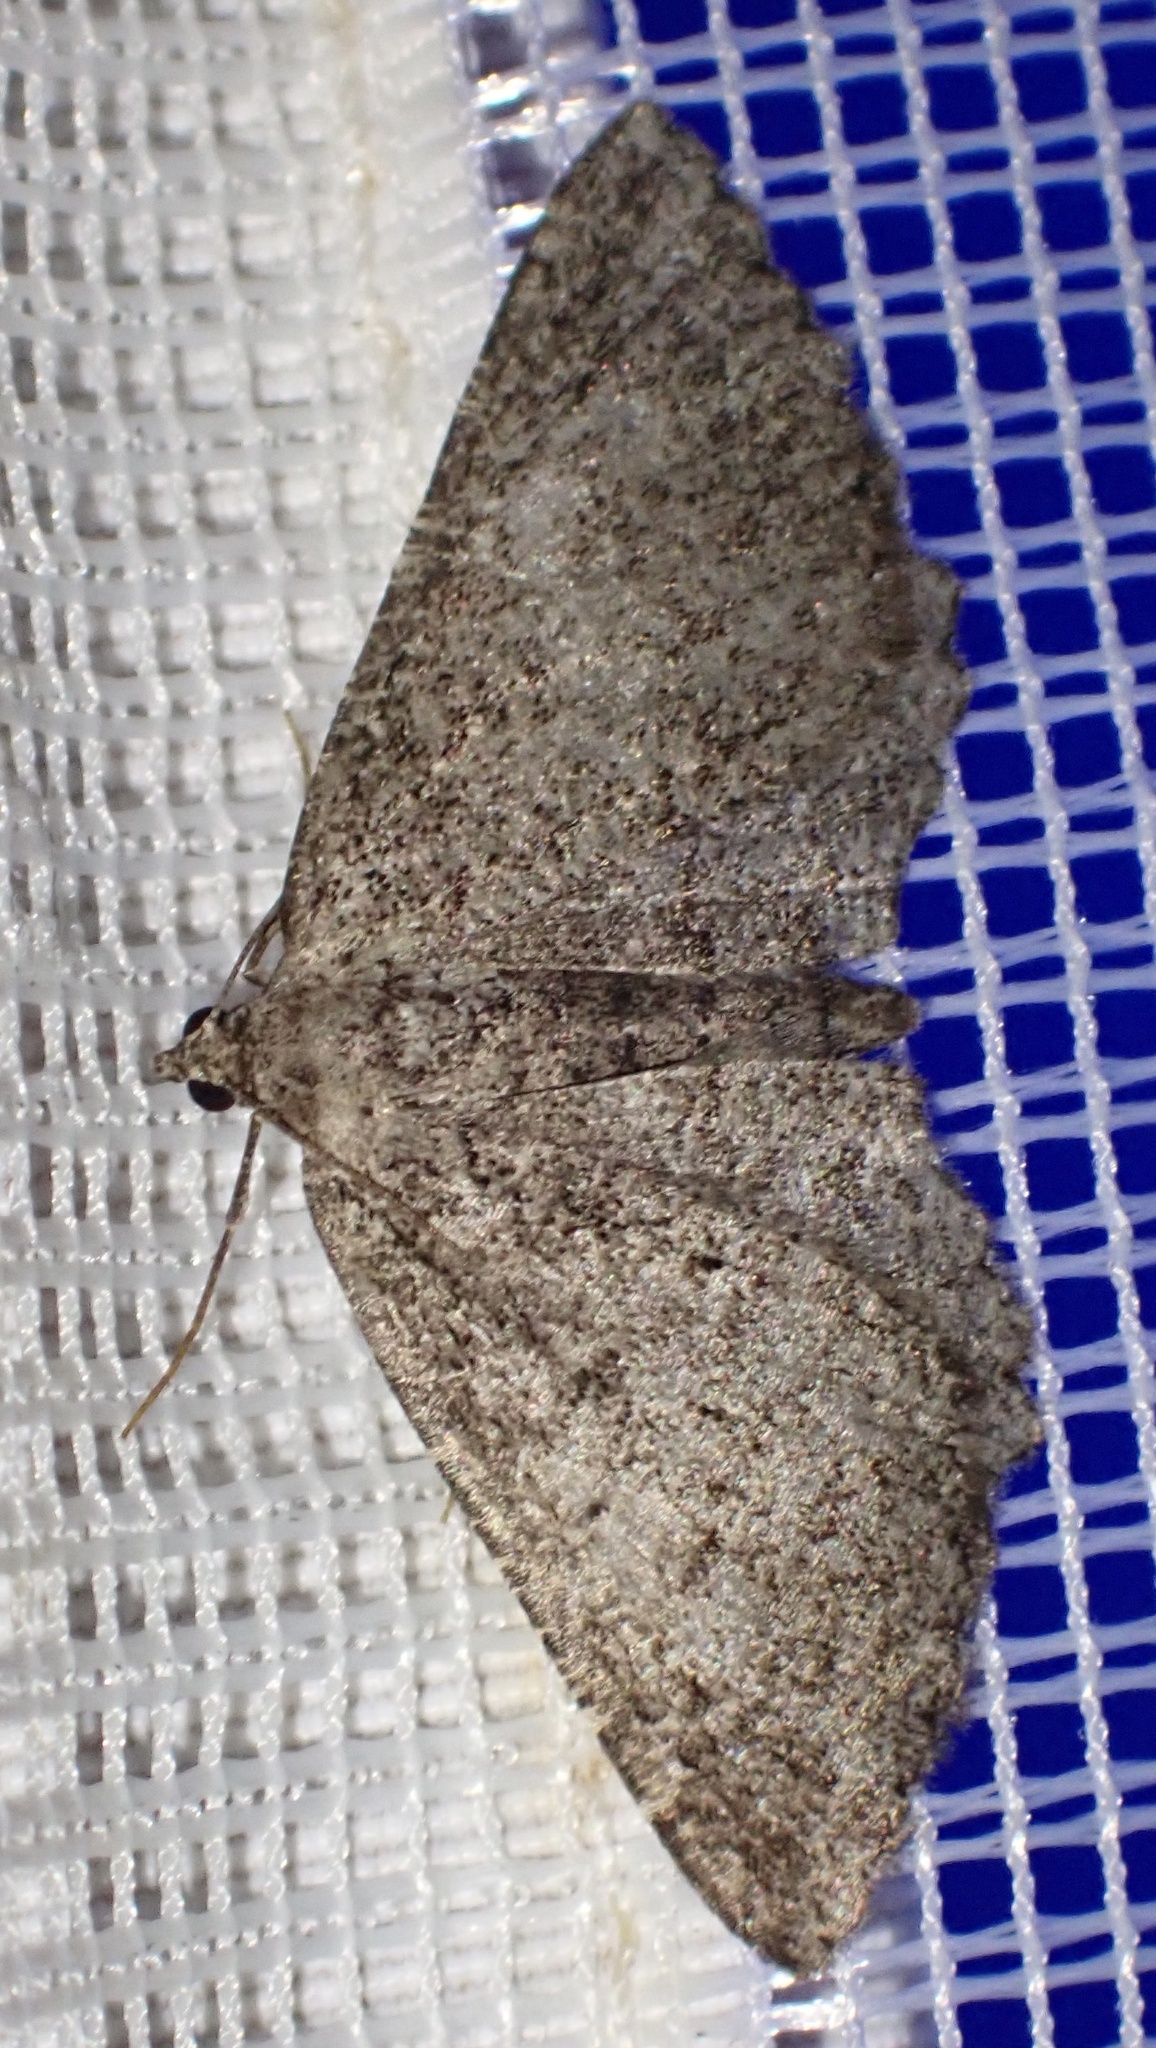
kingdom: Animalia
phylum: Arthropoda
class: Insecta
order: Lepidoptera
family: Geometridae
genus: Rhoptria
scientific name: Rhoptria asperaria
